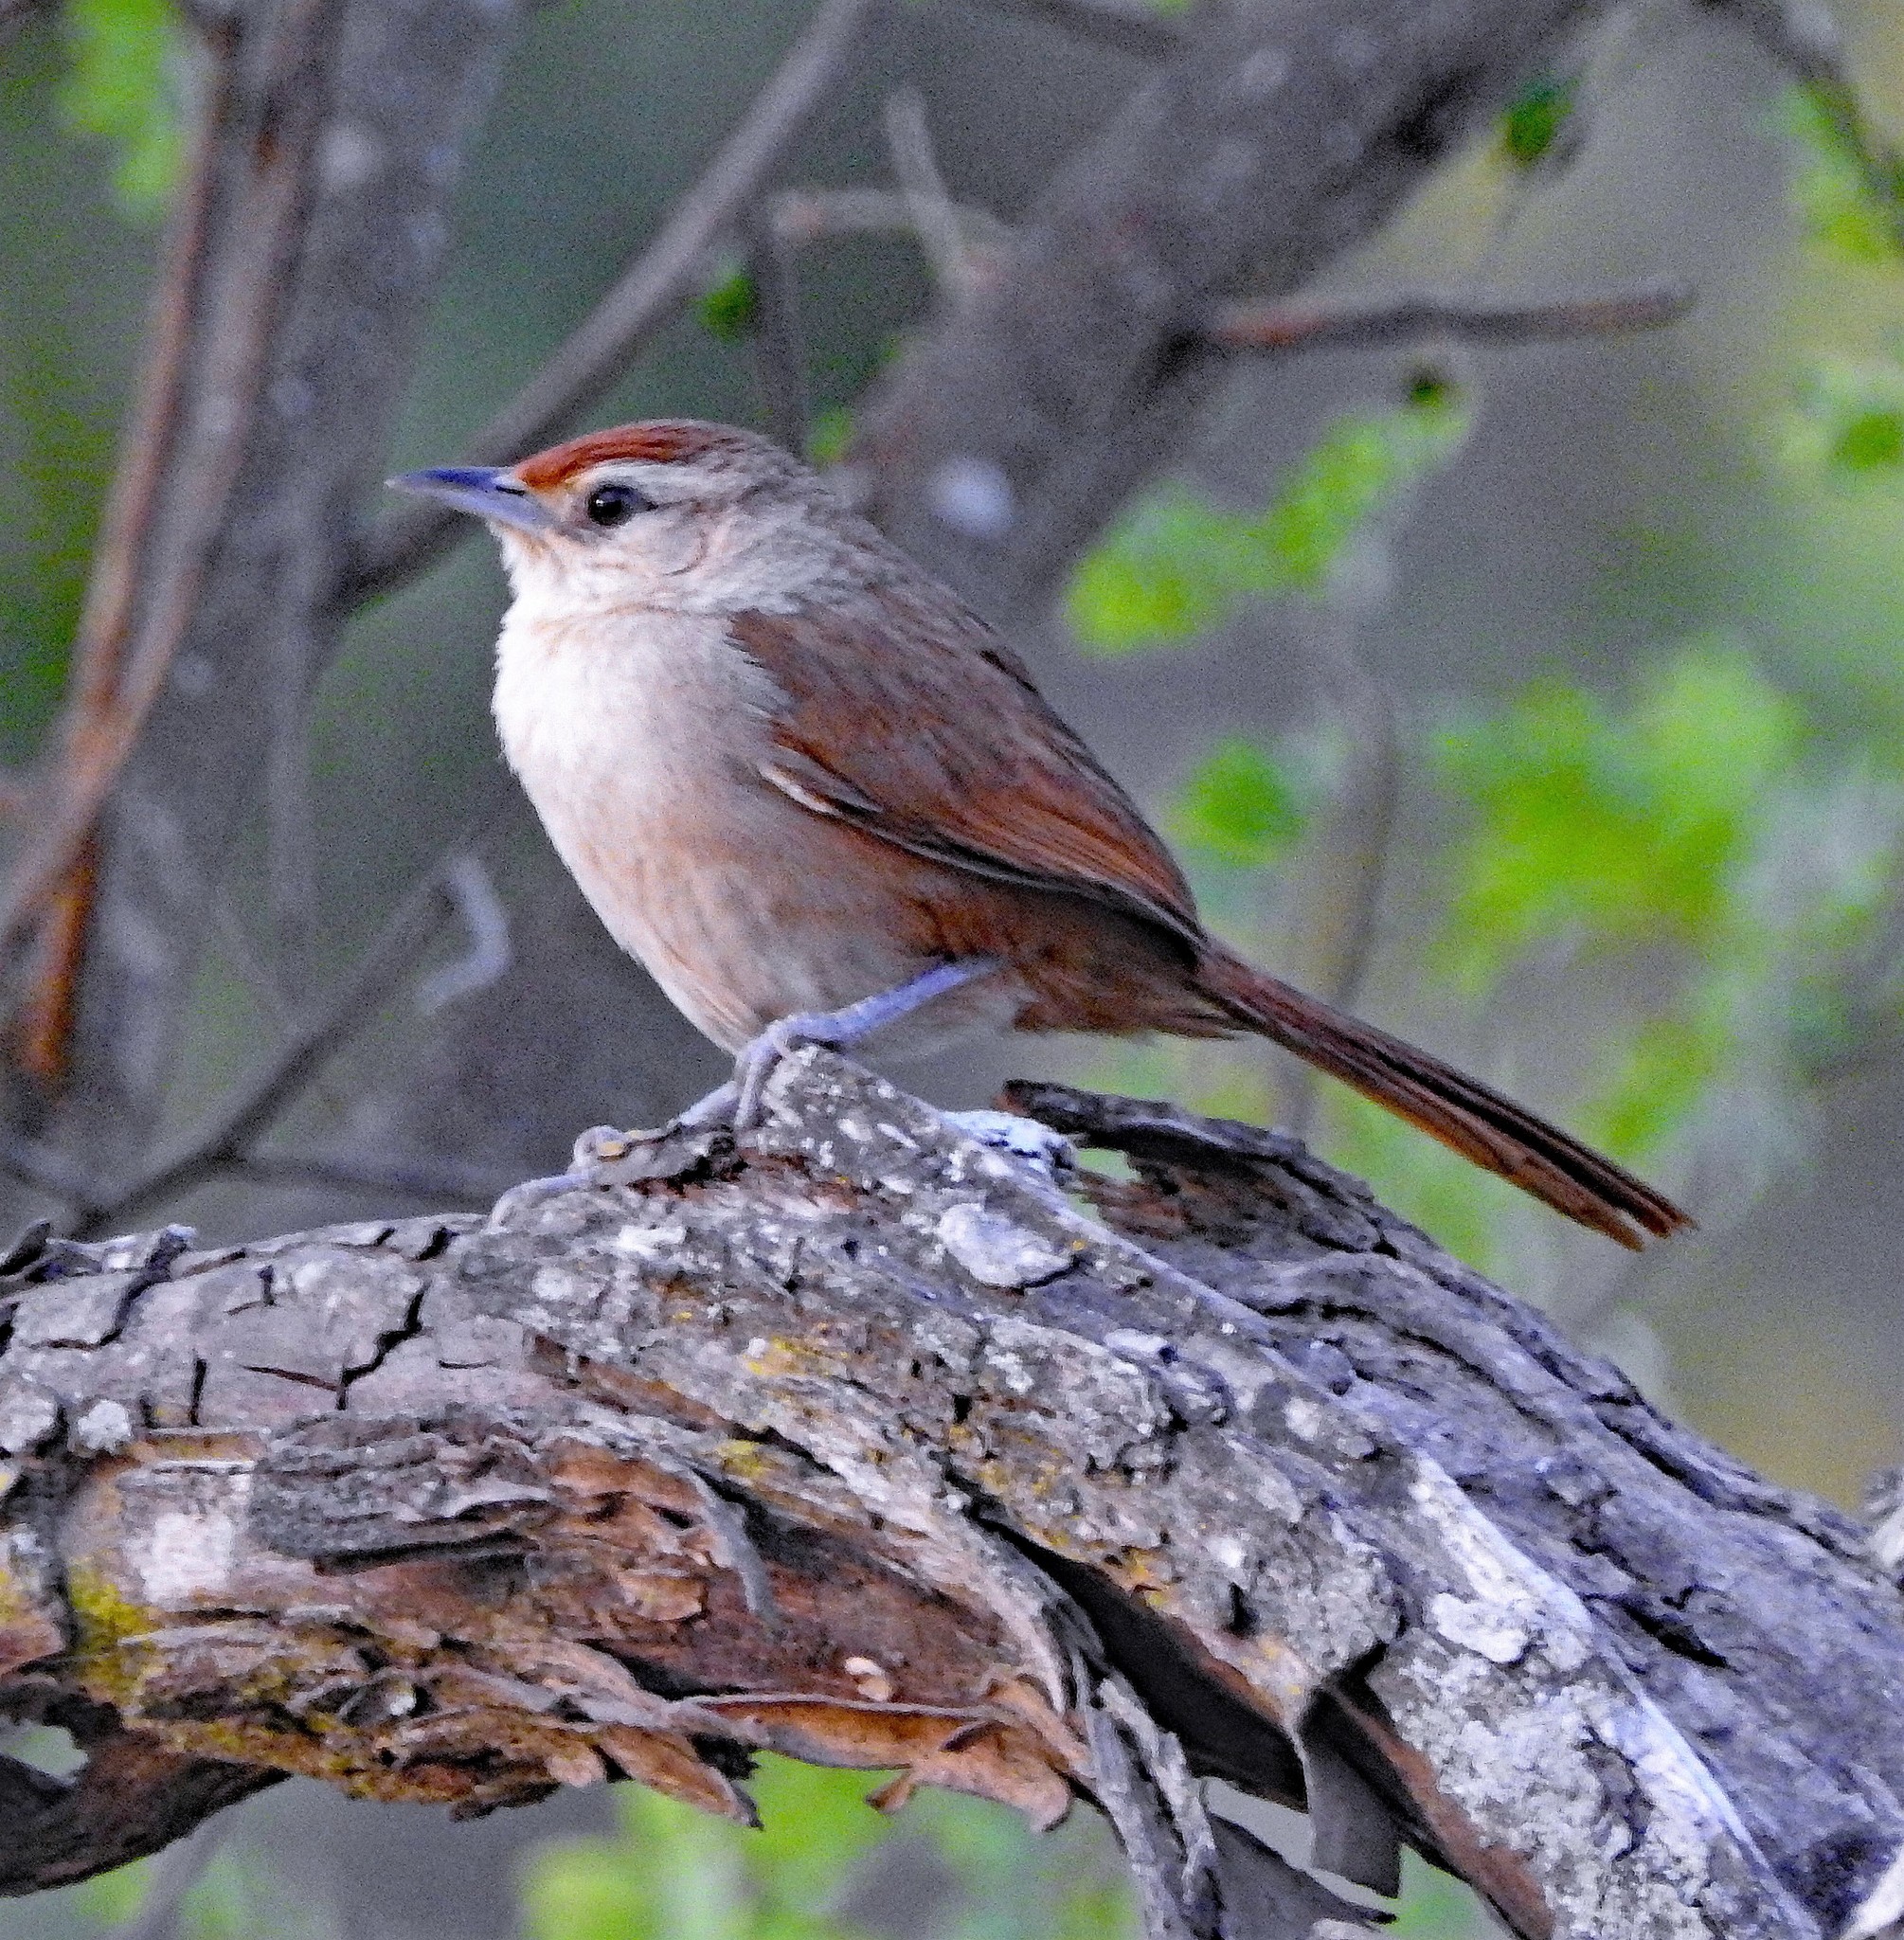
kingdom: Animalia
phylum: Chordata
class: Aves
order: Passeriformes
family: Furnariidae
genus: Phacellodomus
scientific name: Phacellodomus rufifrons
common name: Rufous-fronted thornbird
